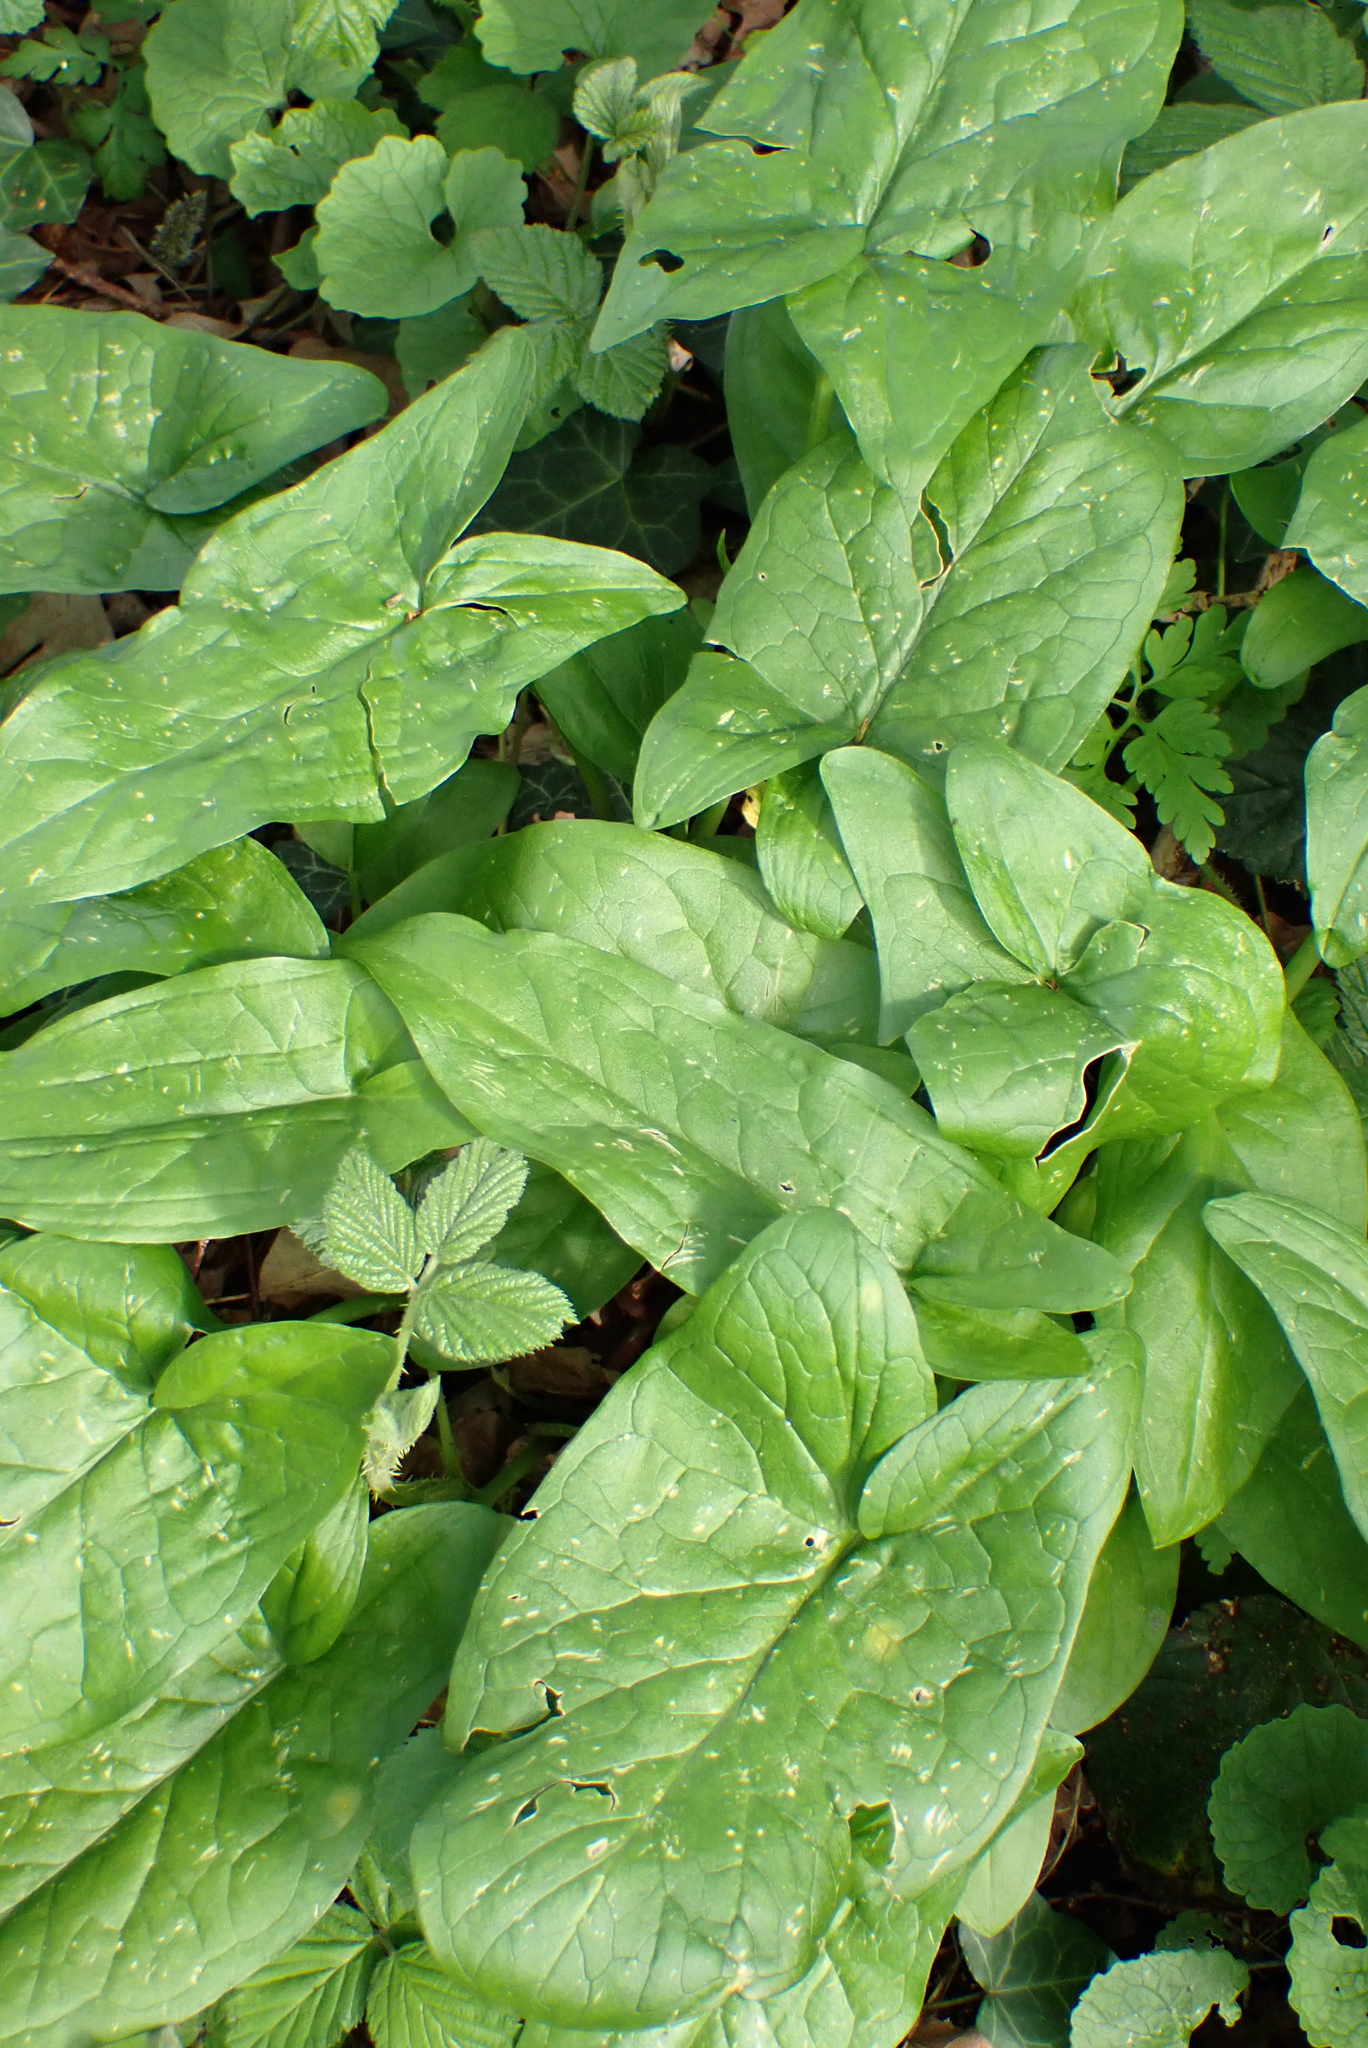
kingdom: Plantae
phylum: Tracheophyta
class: Liliopsida
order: Alismatales
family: Araceae
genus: Arum
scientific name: Arum maculatum
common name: Lords-and-ladies
